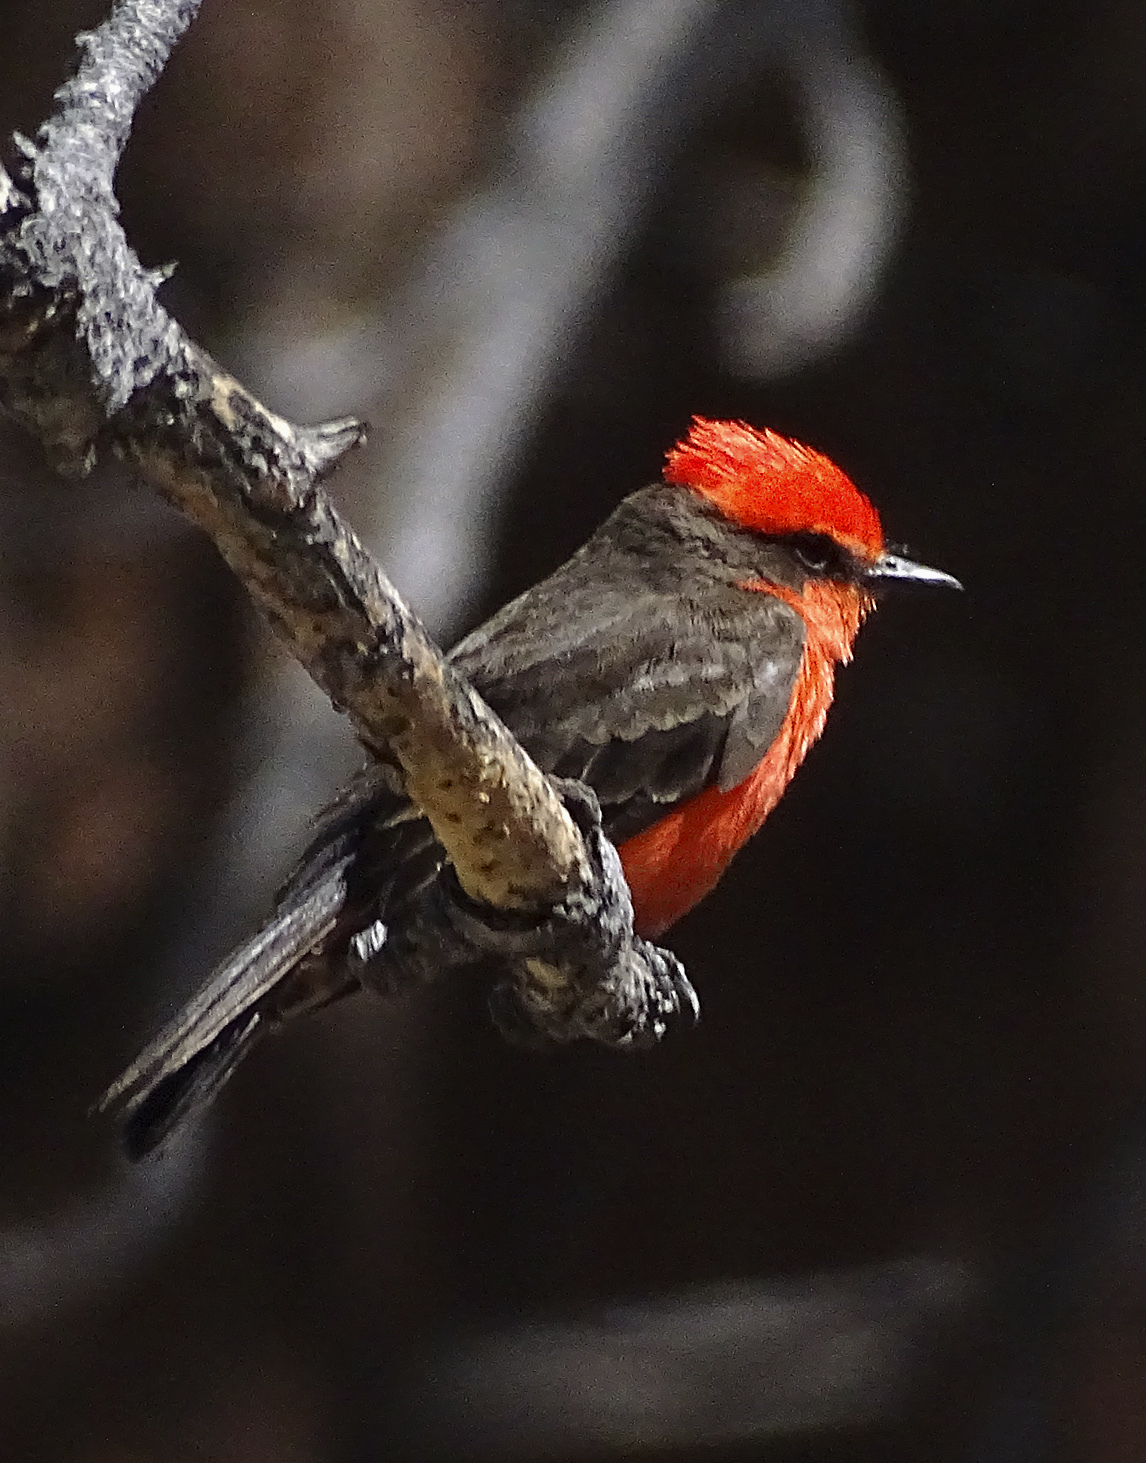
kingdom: Animalia
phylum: Chordata
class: Aves
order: Passeriformes
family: Tyrannidae
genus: Pyrocephalus
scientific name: Pyrocephalus rubinus
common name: Vermilion flycatcher
